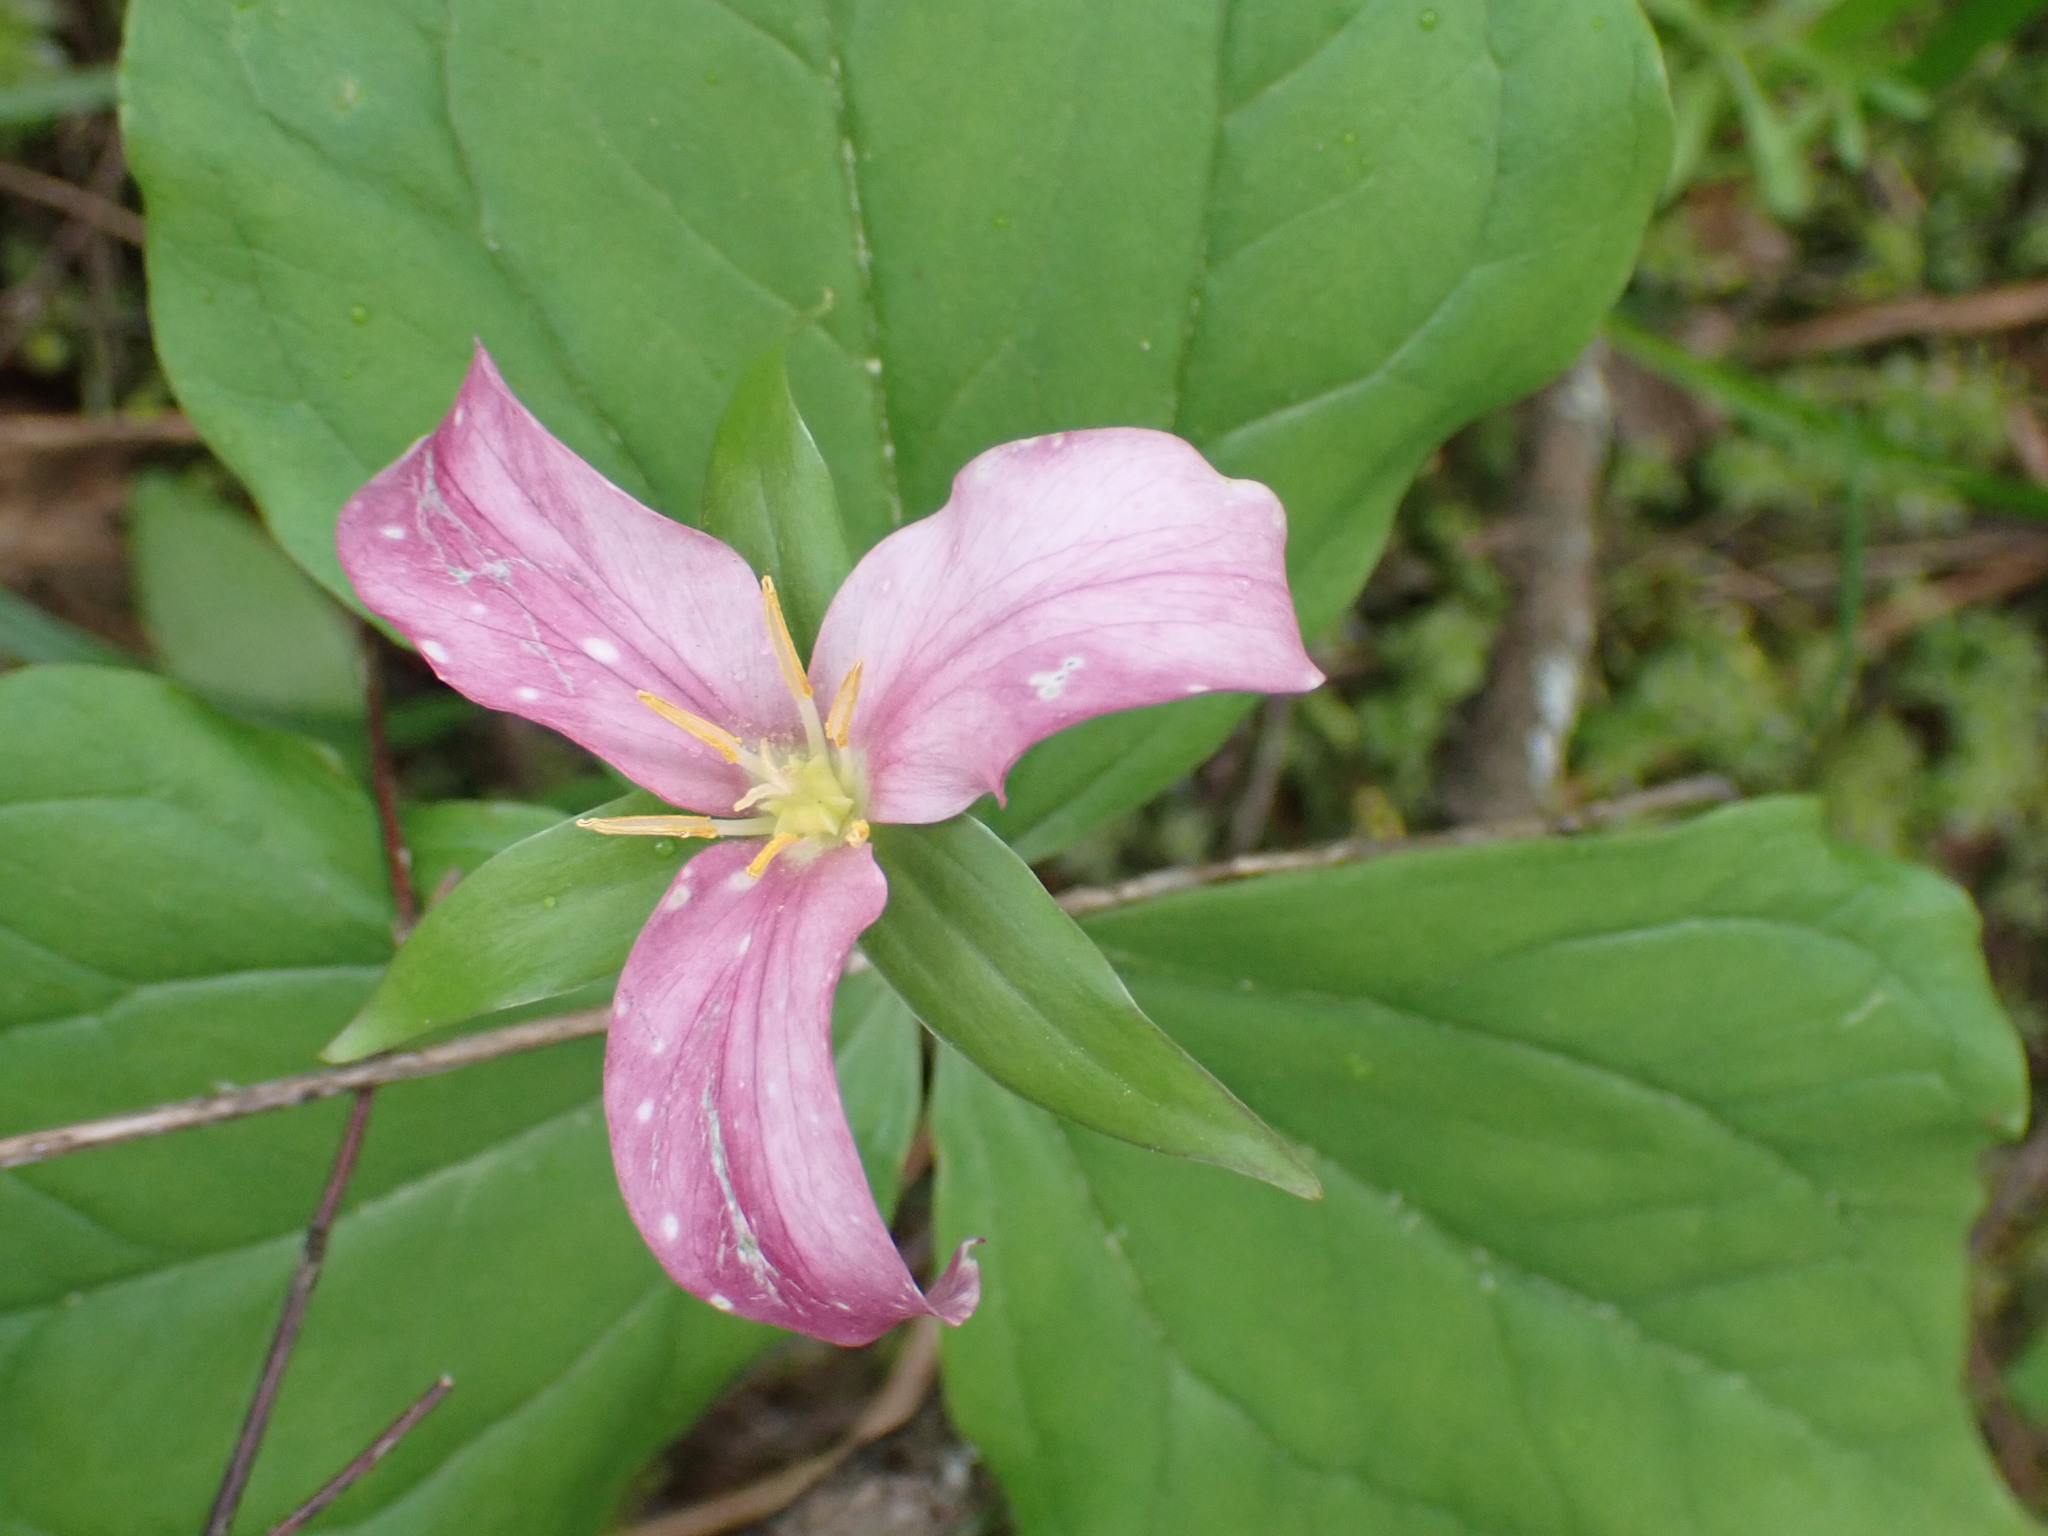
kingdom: Plantae
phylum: Tracheophyta
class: Liliopsida
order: Liliales
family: Melanthiaceae
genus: Trillium
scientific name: Trillium ovatum
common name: Pacific trillium
